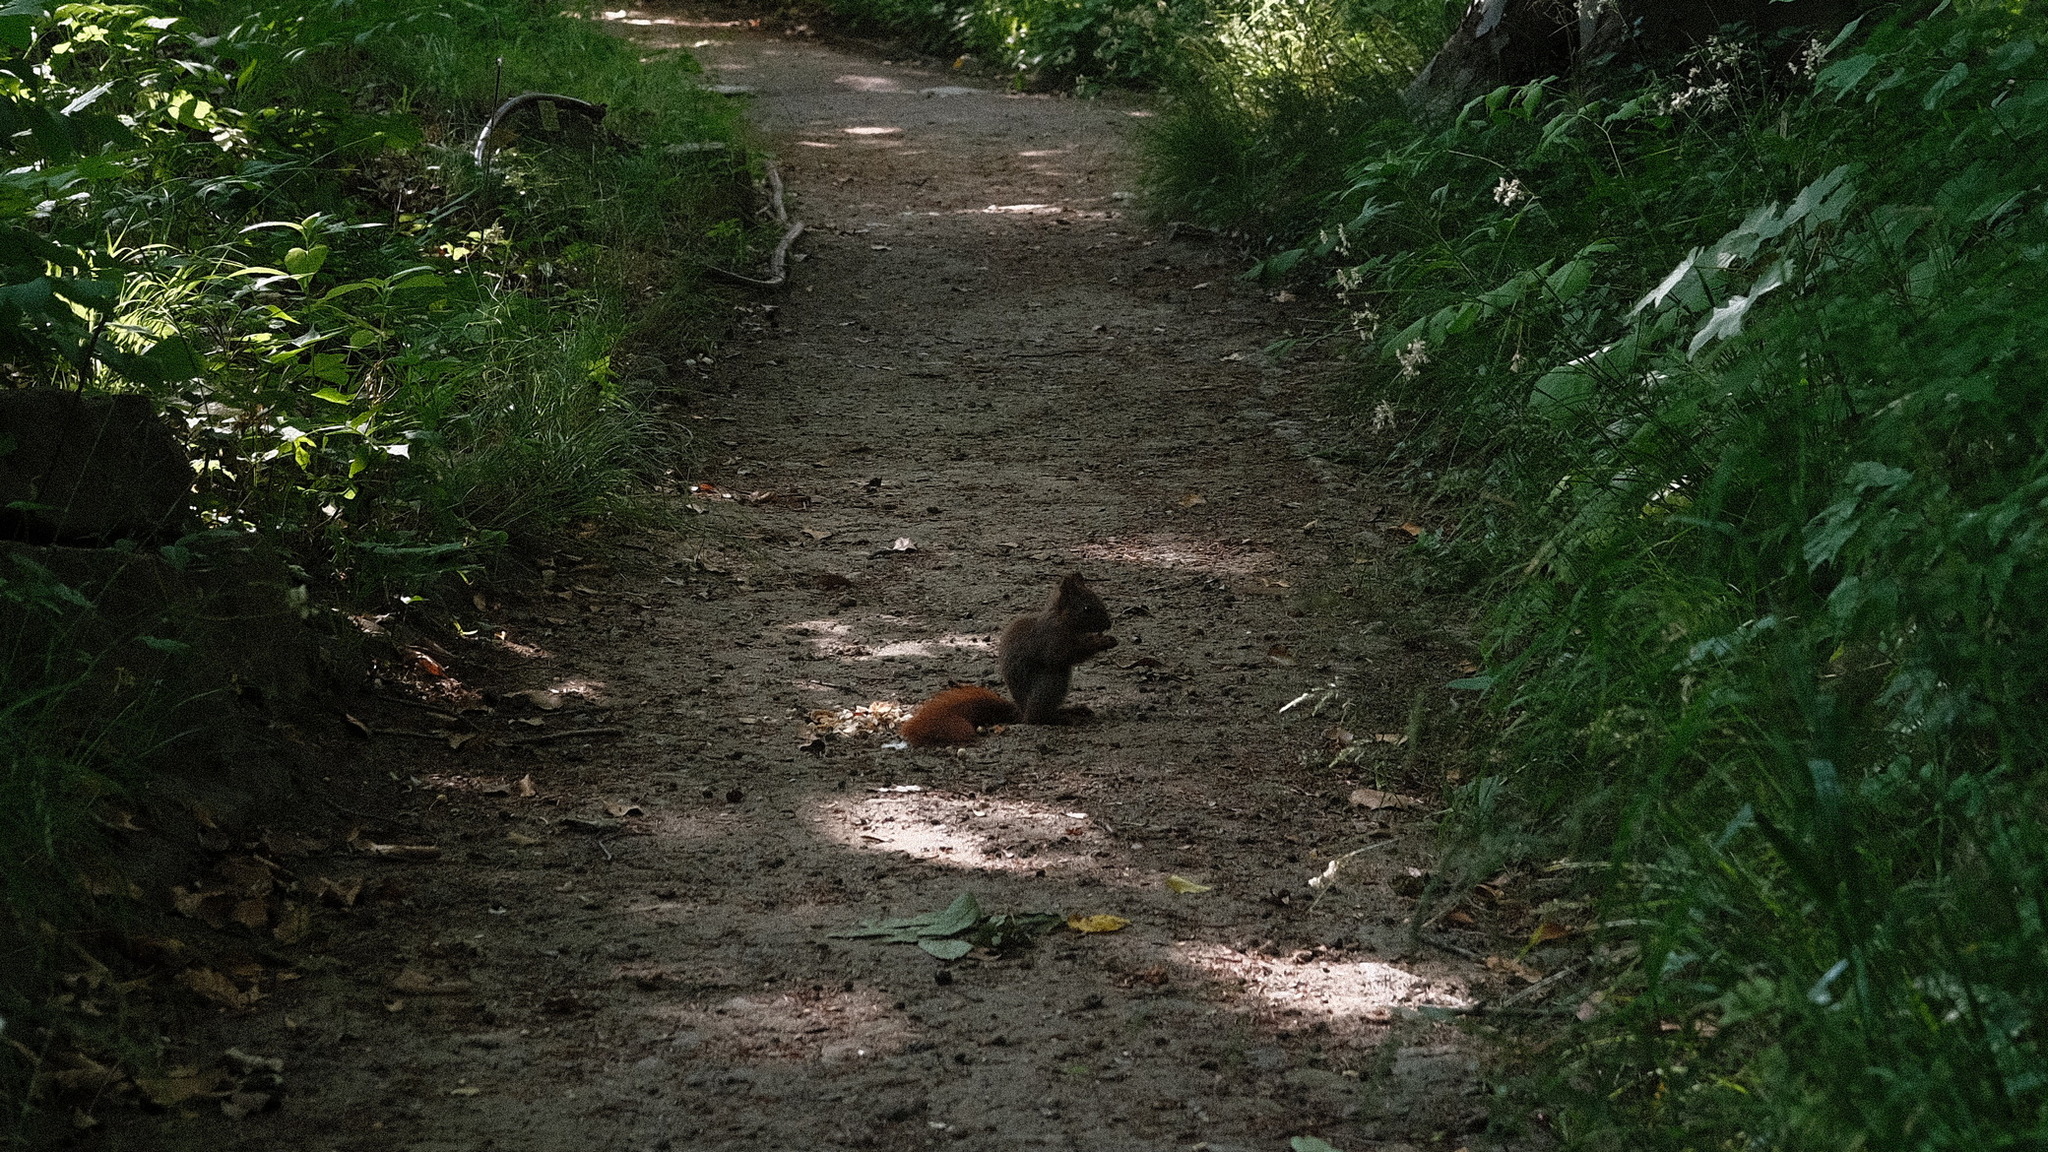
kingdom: Animalia
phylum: Chordata
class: Mammalia
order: Rodentia
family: Sciuridae
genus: Sciurus
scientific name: Sciurus vulgaris
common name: Eurasian red squirrel
